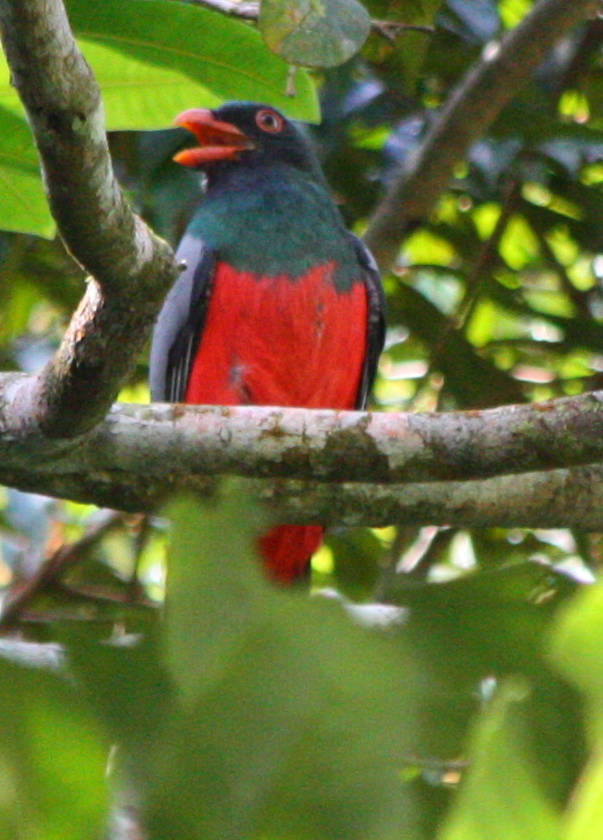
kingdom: Animalia
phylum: Chordata
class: Aves
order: Trogoniformes
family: Trogonidae
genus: Trogon
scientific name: Trogon massena
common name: Slaty-tailed trogon
